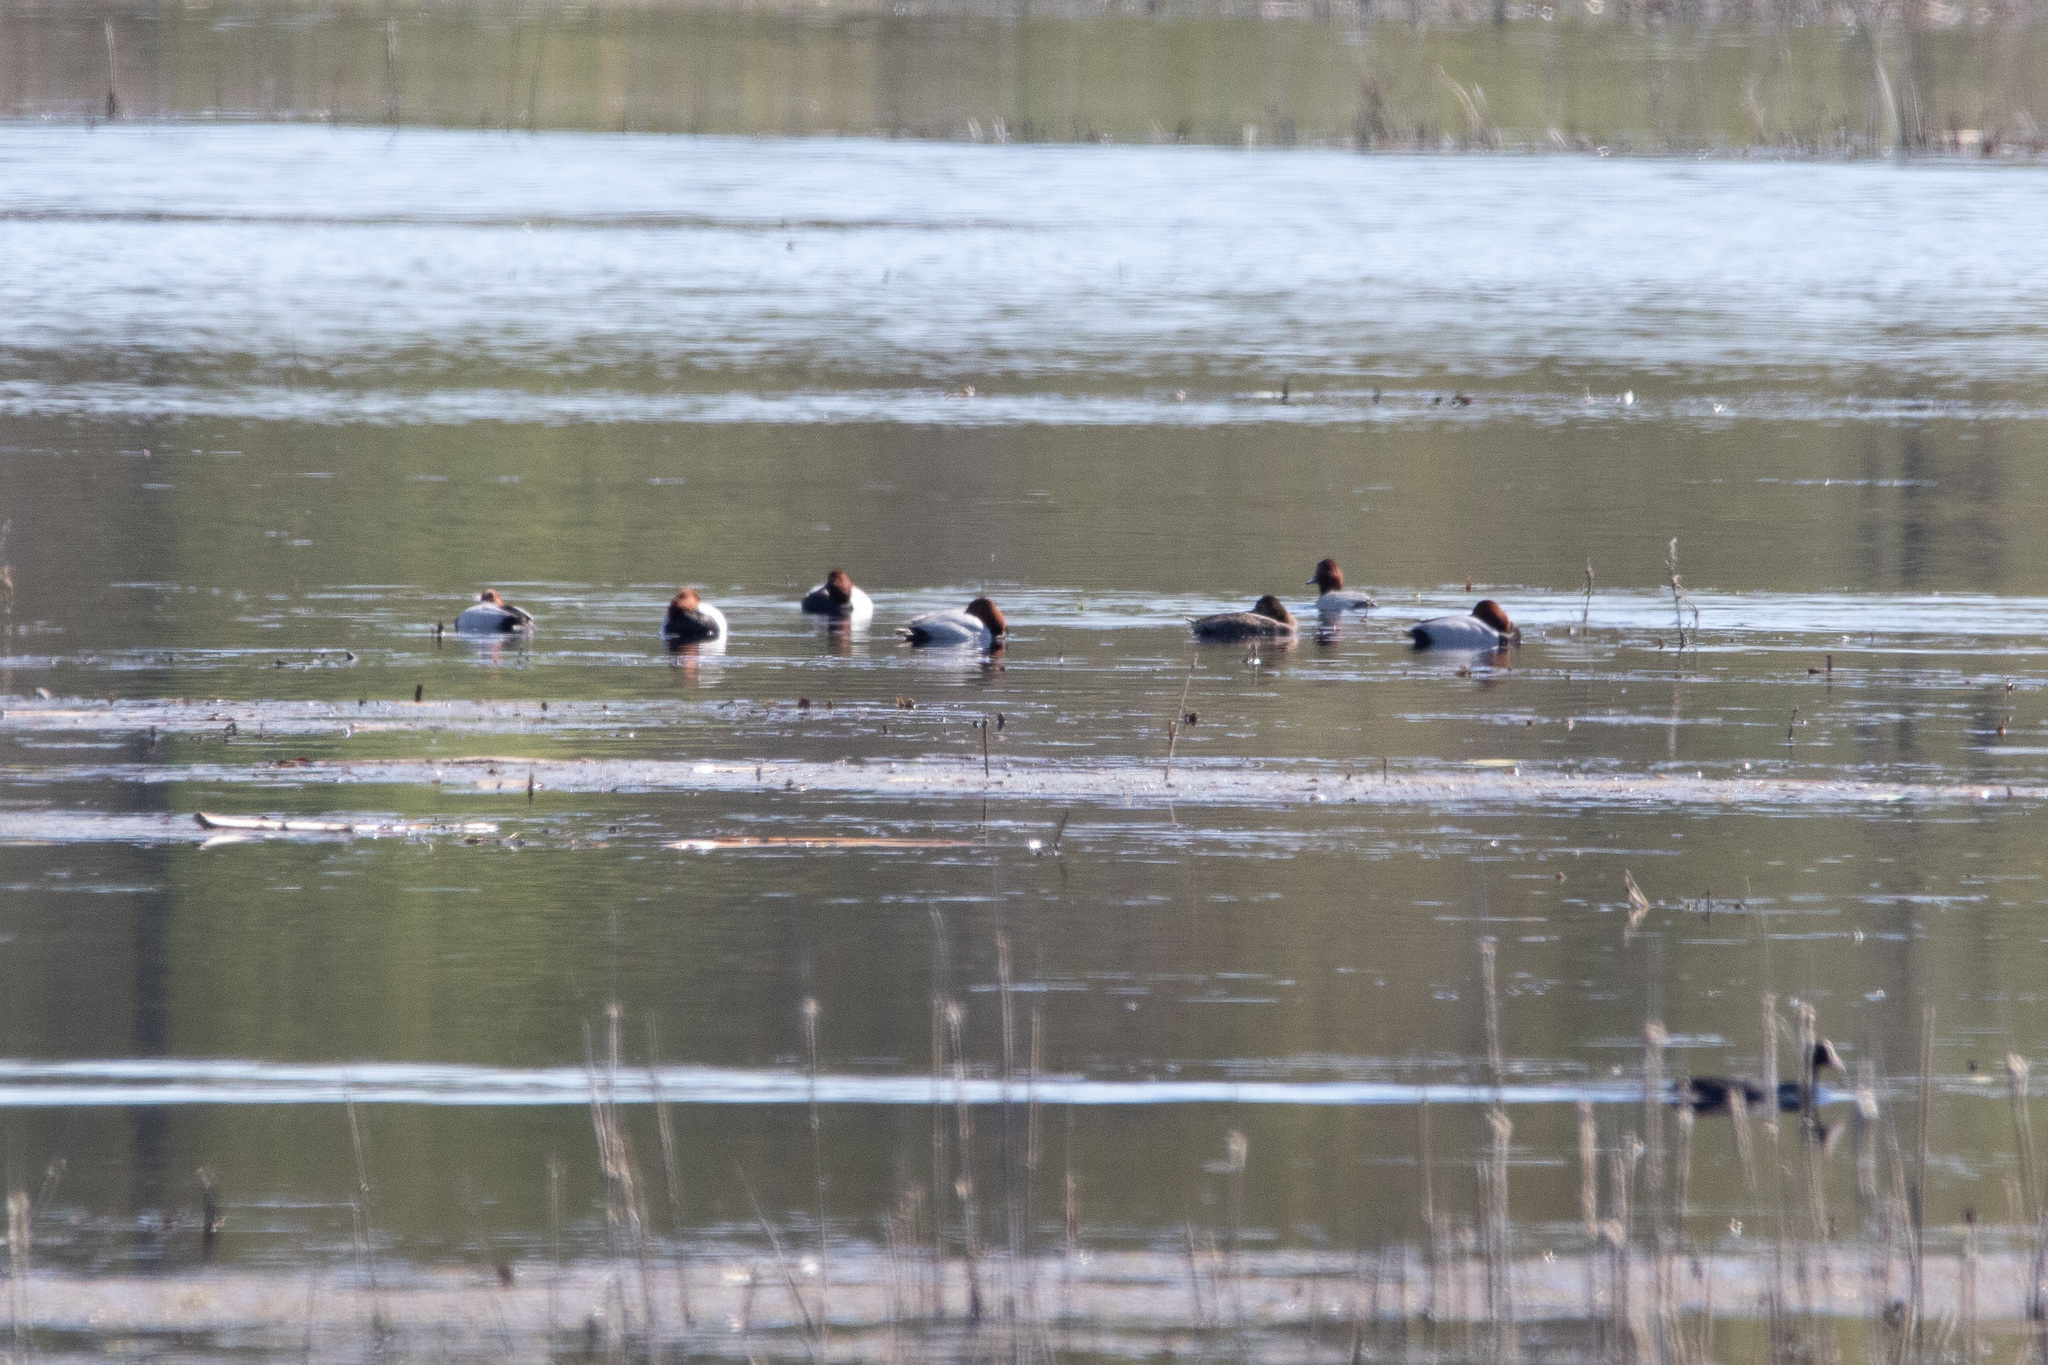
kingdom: Animalia
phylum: Chordata
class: Aves
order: Anseriformes
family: Anatidae
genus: Aythya
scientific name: Aythya ferina
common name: Common pochard
